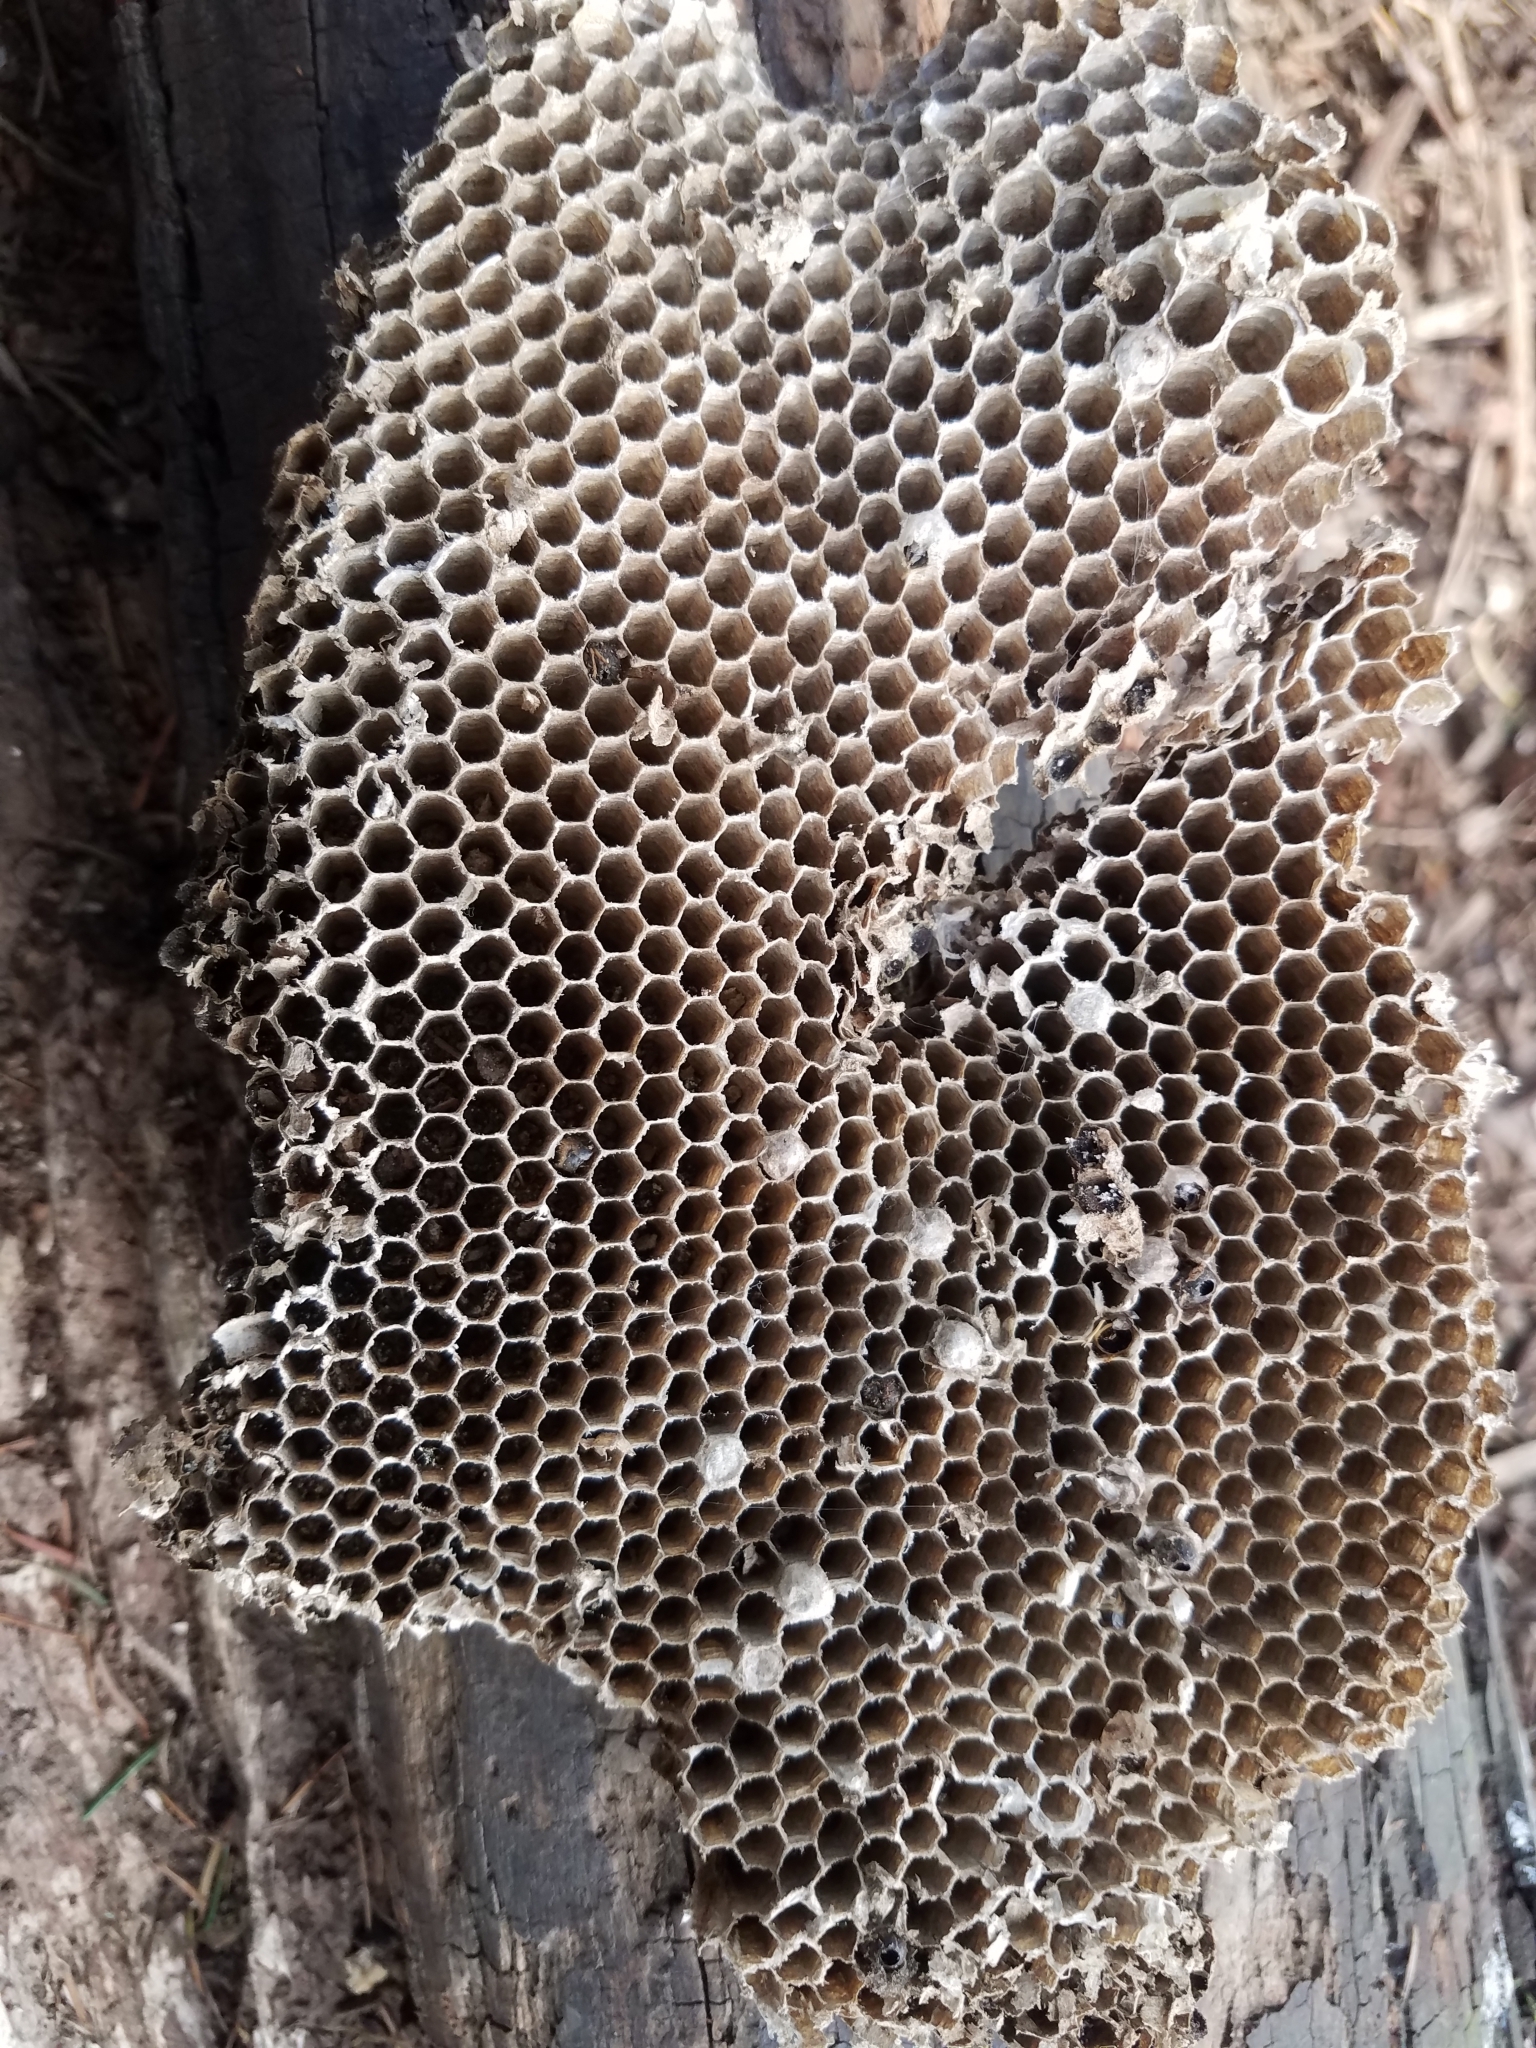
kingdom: Animalia
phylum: Arthropoda
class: Insecta
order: Hymenoptera
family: Vespidae
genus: Vespula
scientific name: Vespula
